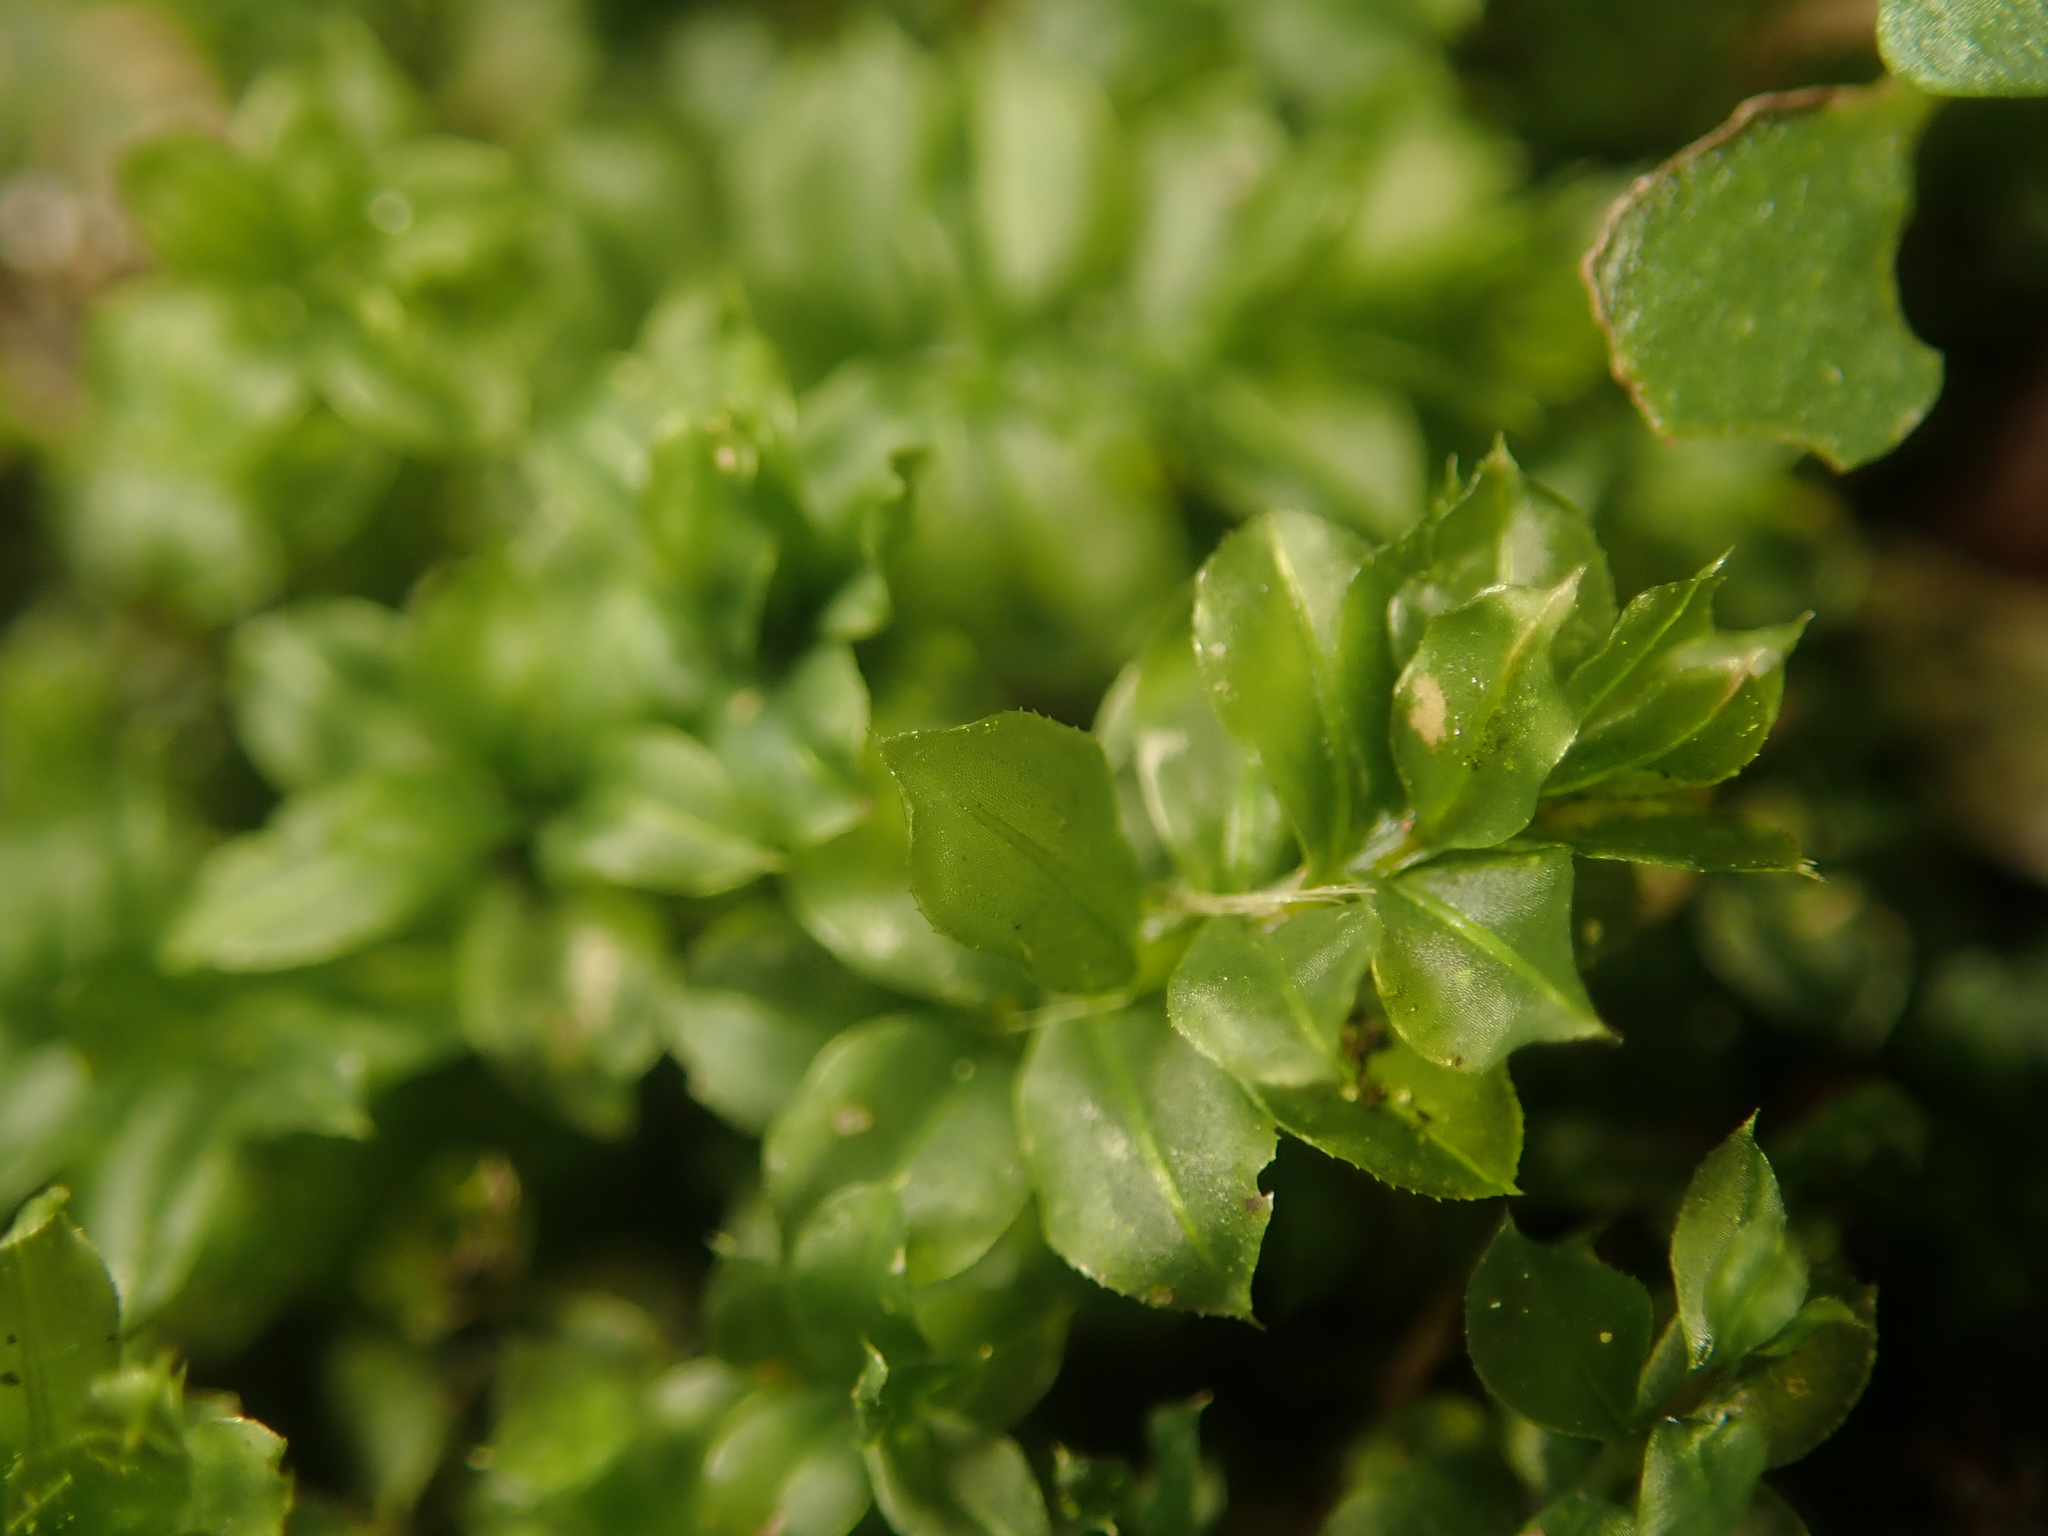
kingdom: Plantae
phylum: Bryophyta
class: Bryopsida
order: Bryales
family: Mniaceae
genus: Plagiomnium
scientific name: Plagiomnium cuspidatum
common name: Woodsy leafy moss
